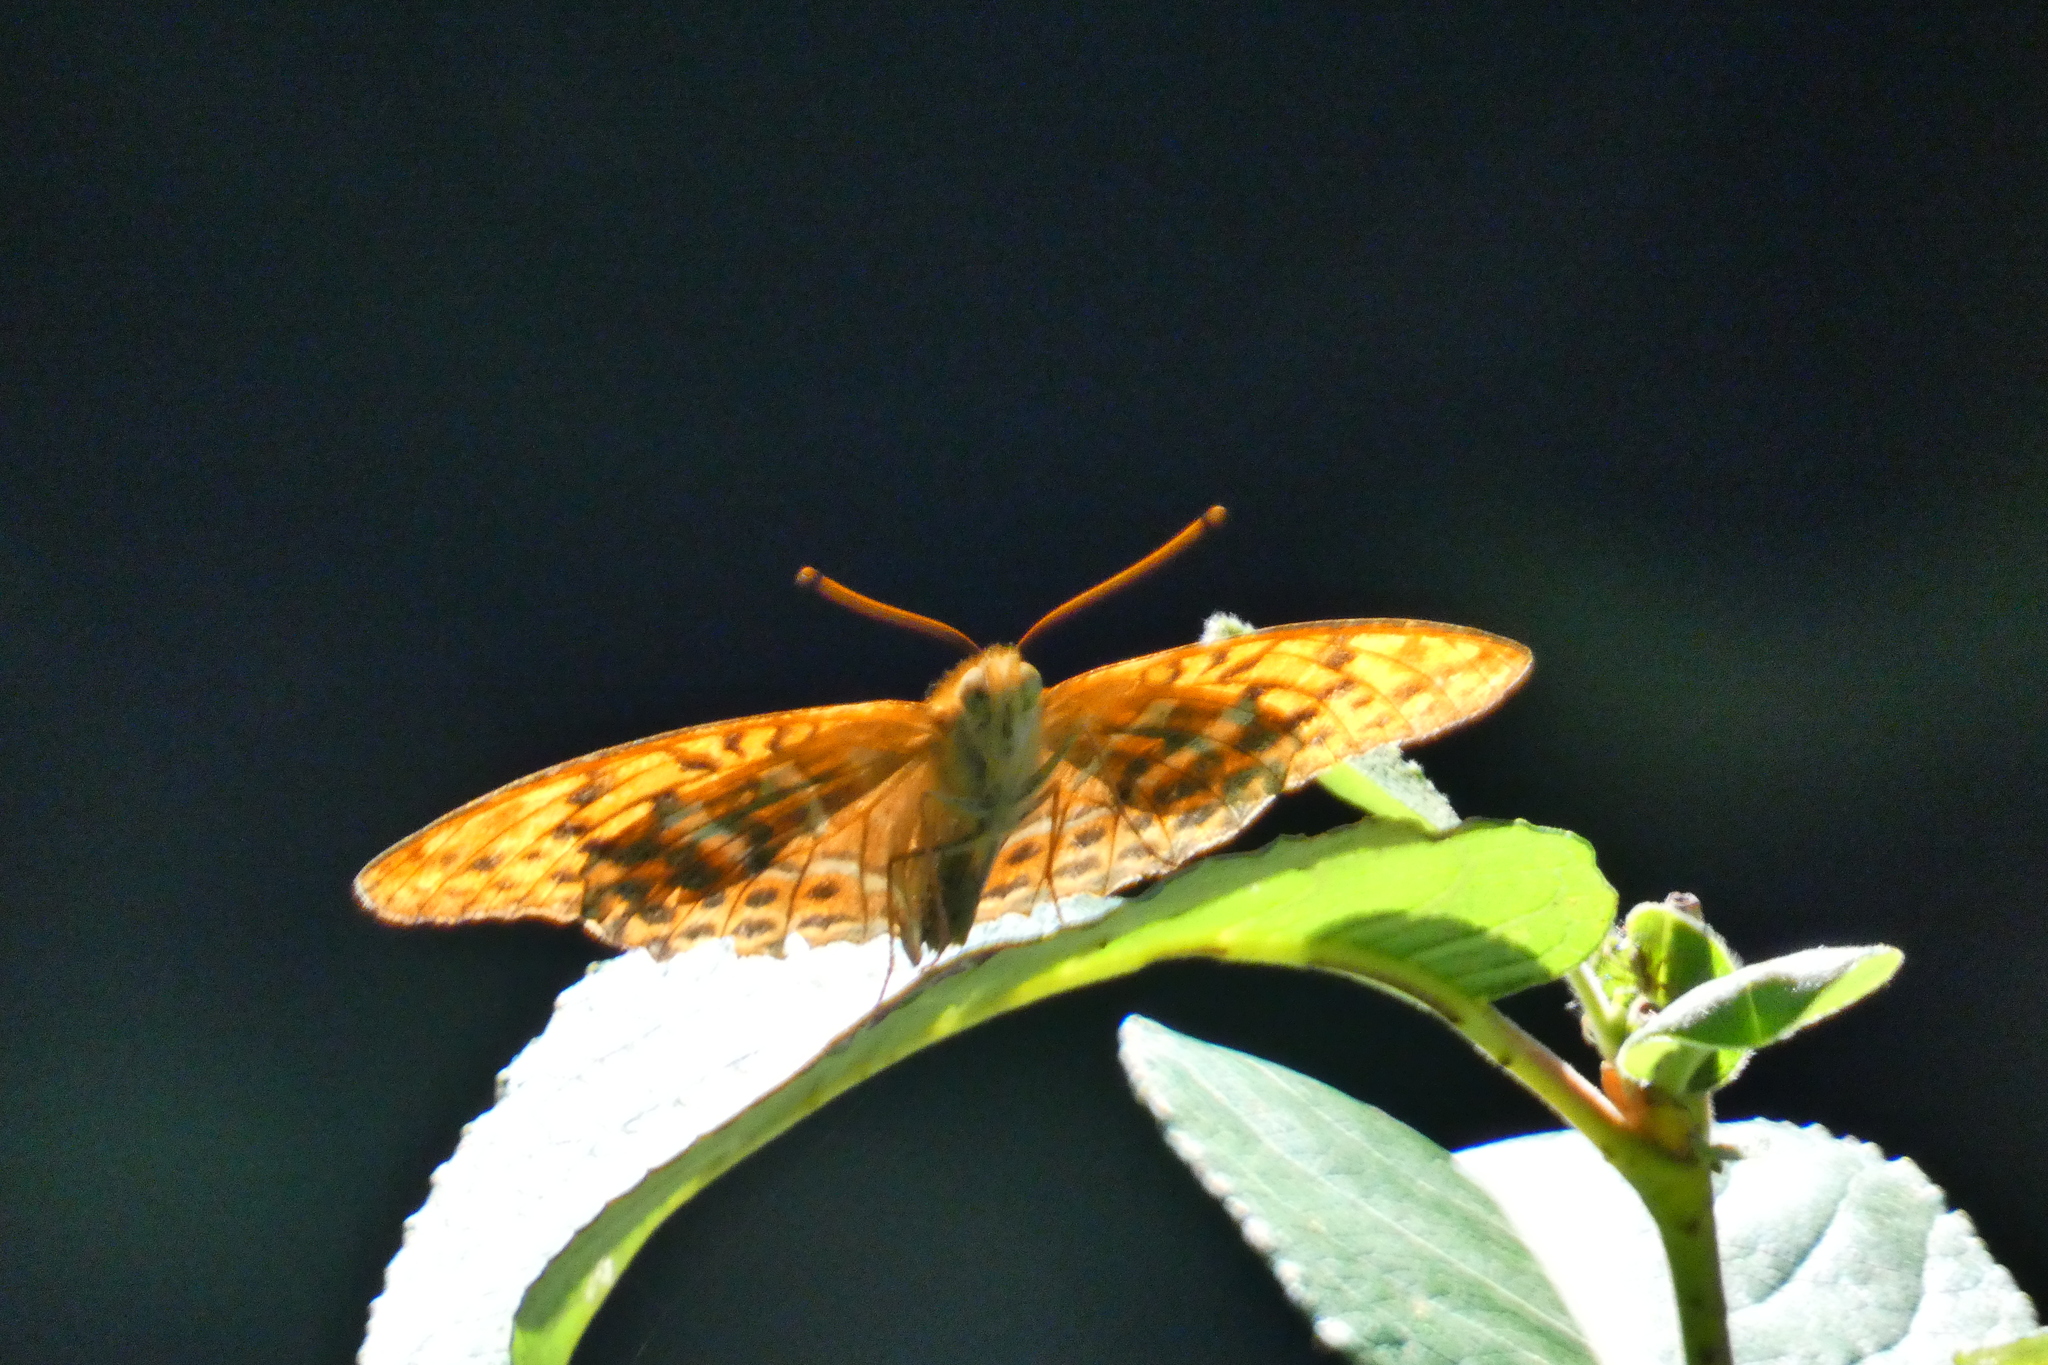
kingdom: Animalia
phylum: Arthropoda
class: Insecta
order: Lepidoptera
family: Nymphalidae
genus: Argynnis
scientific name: Argynnis paphia
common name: Silver-washed fritillary
